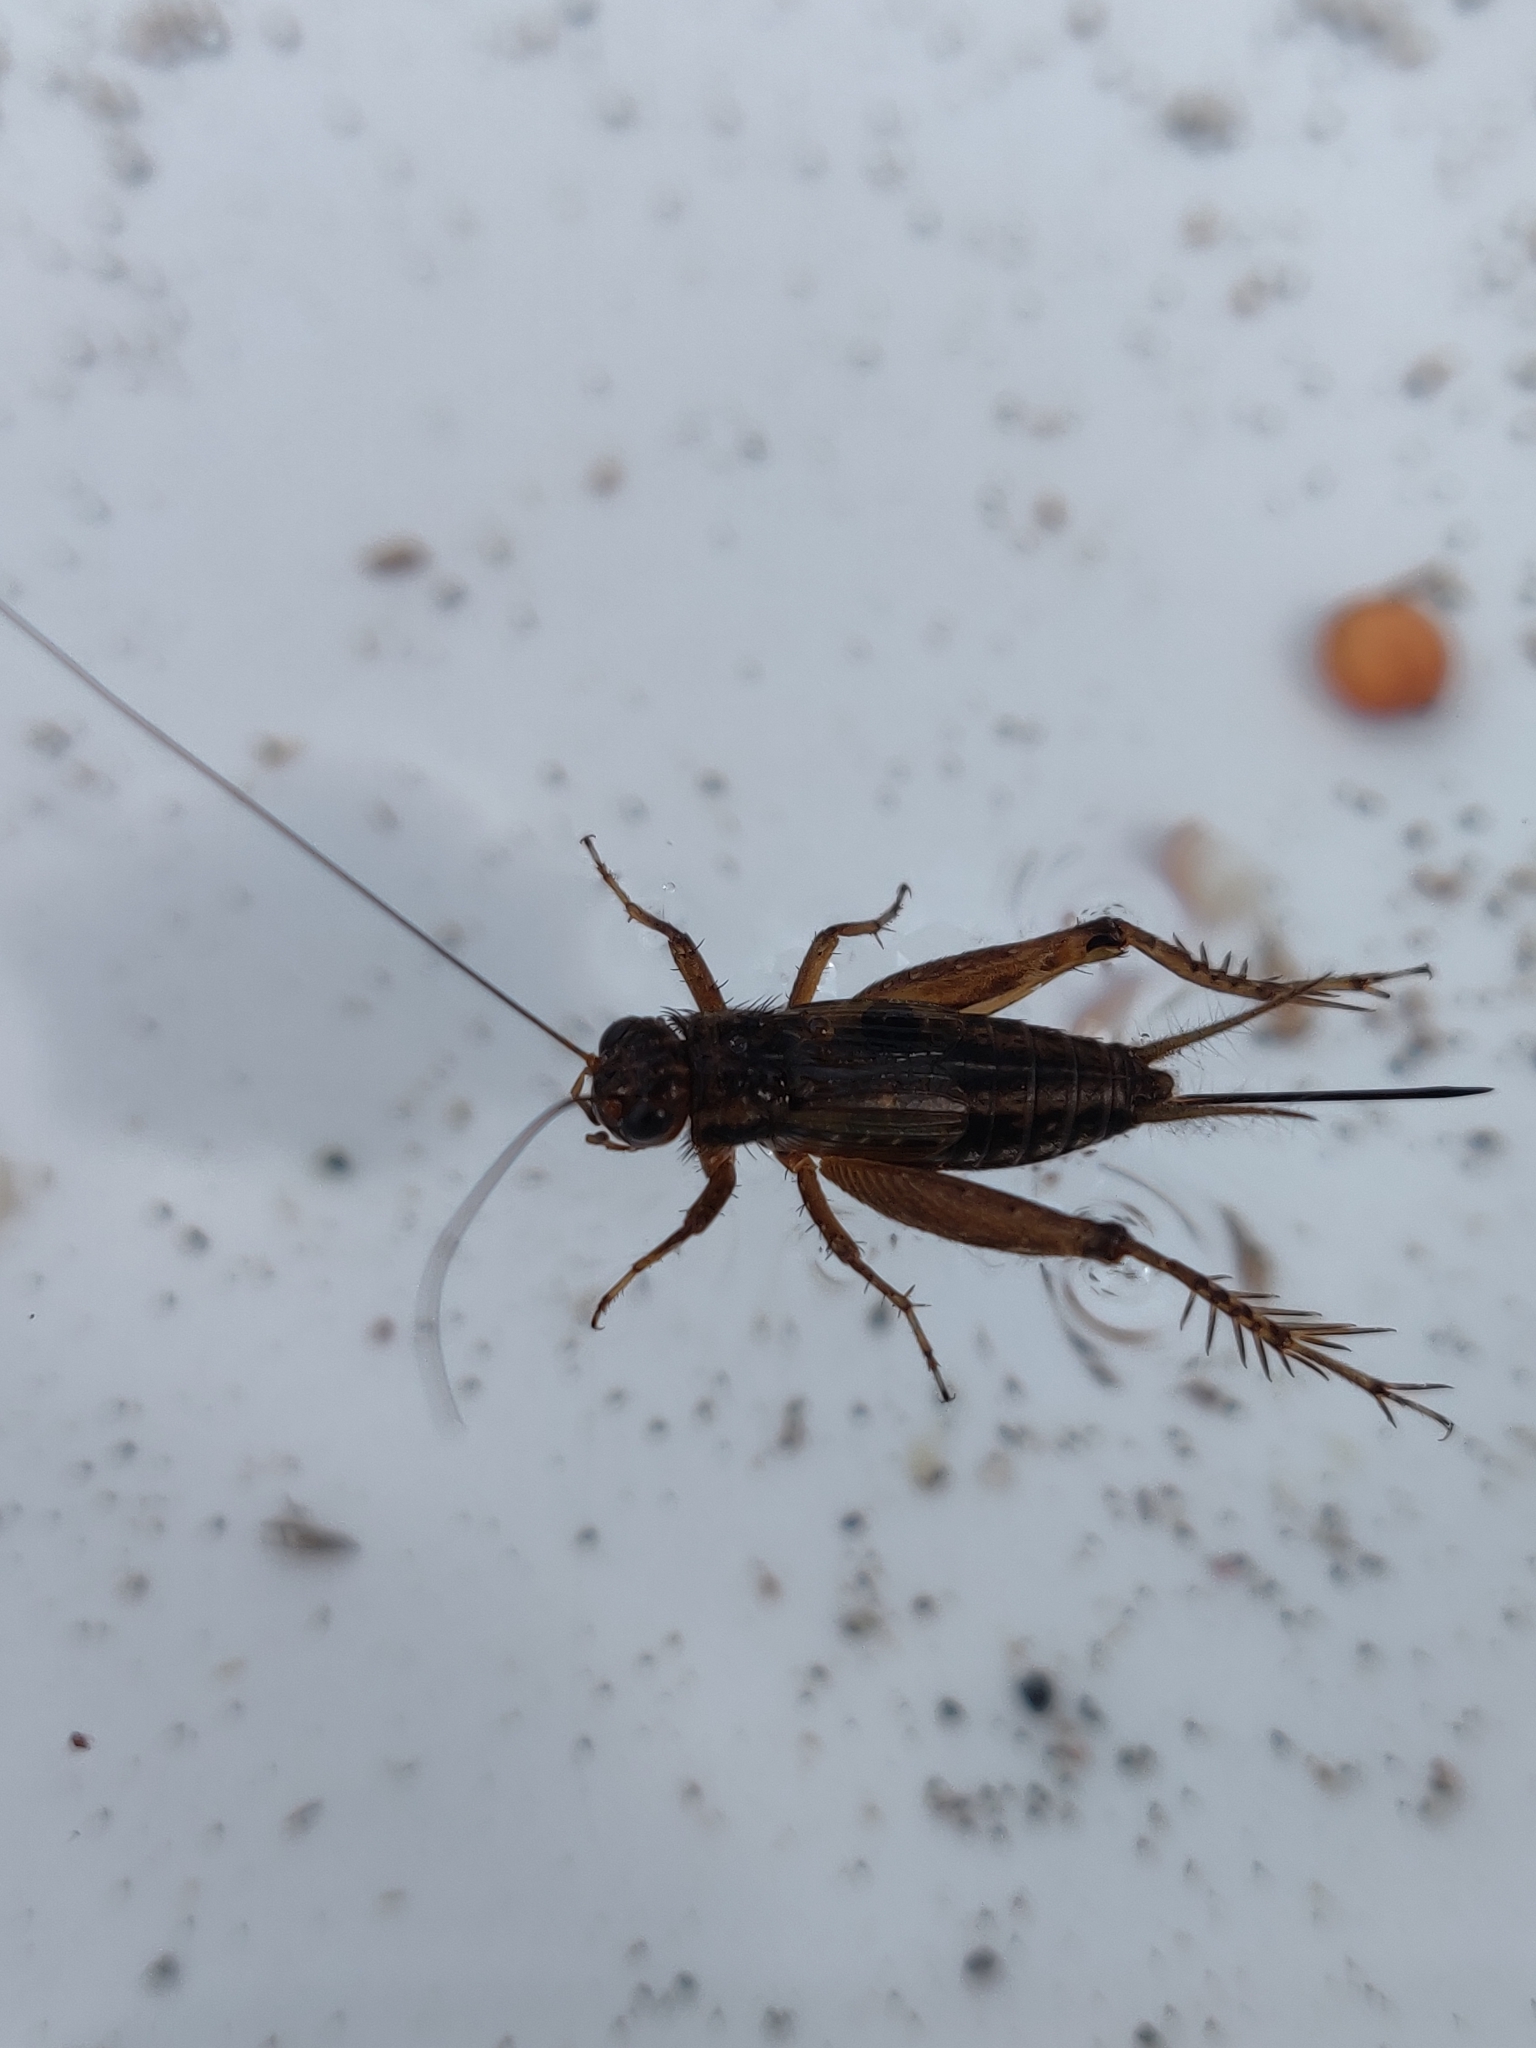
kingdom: Animalia
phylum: Arthropoda
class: Insecta
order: Orthoptera
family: Trigonidiidae
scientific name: Trigonidiidae
